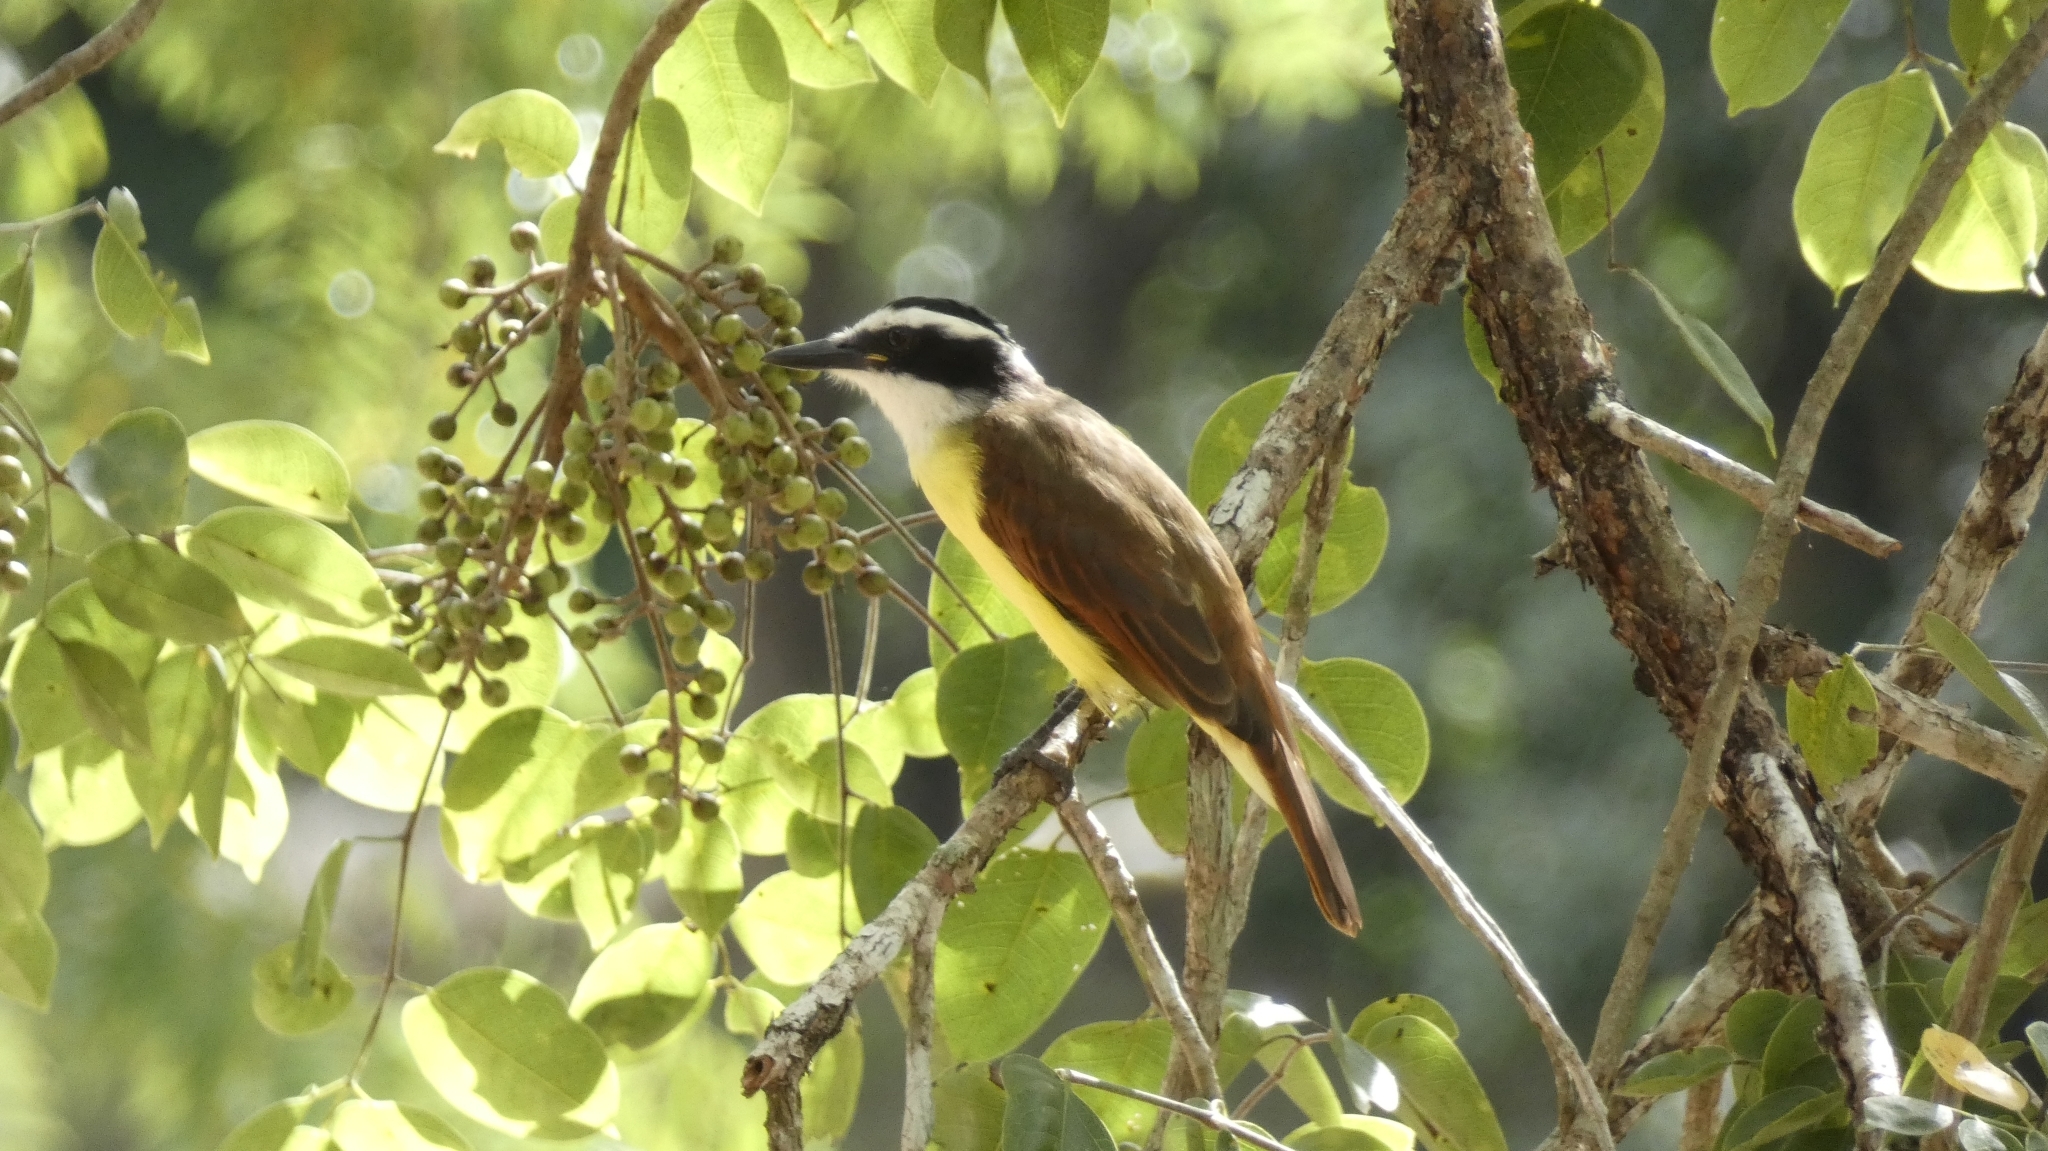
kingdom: Animalia
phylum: Chordata
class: Aves
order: Passeriformes
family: Tyrannidae
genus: Pitangus
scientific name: Pitangus sulphuratus
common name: Great kiskadee
